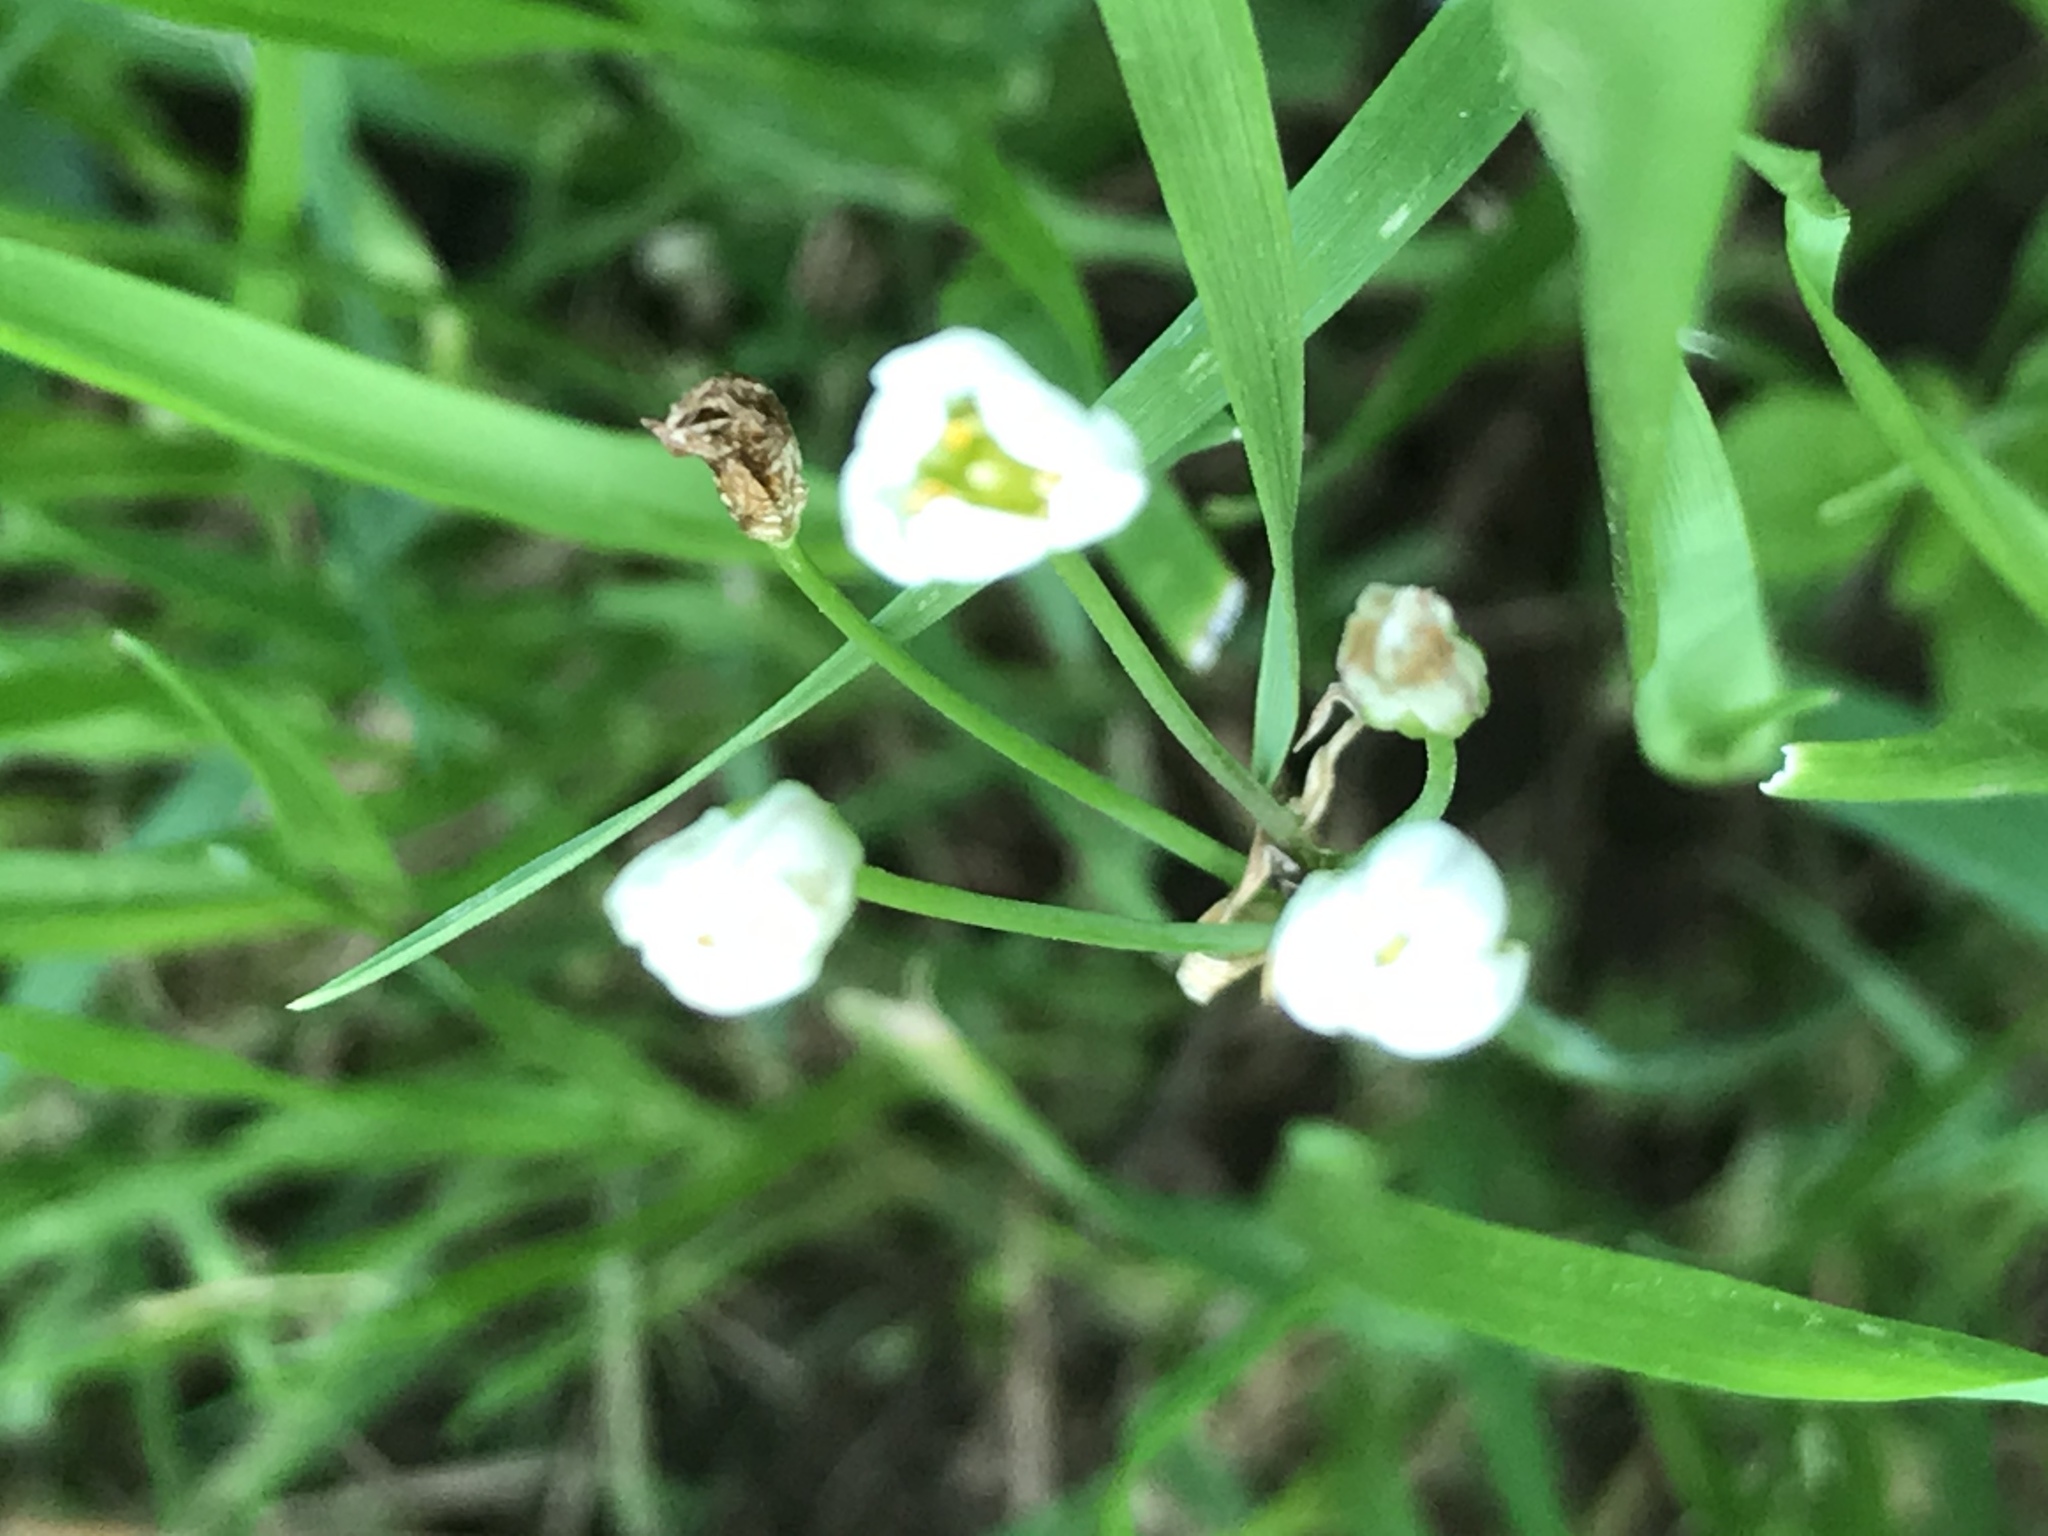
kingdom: Plantae
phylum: Tracheophyta
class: Liliopsida
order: Asparagales
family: Amaryllidaceae
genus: Nothoscordum
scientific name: Nothoscordum bivalve
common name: Crow-poison
